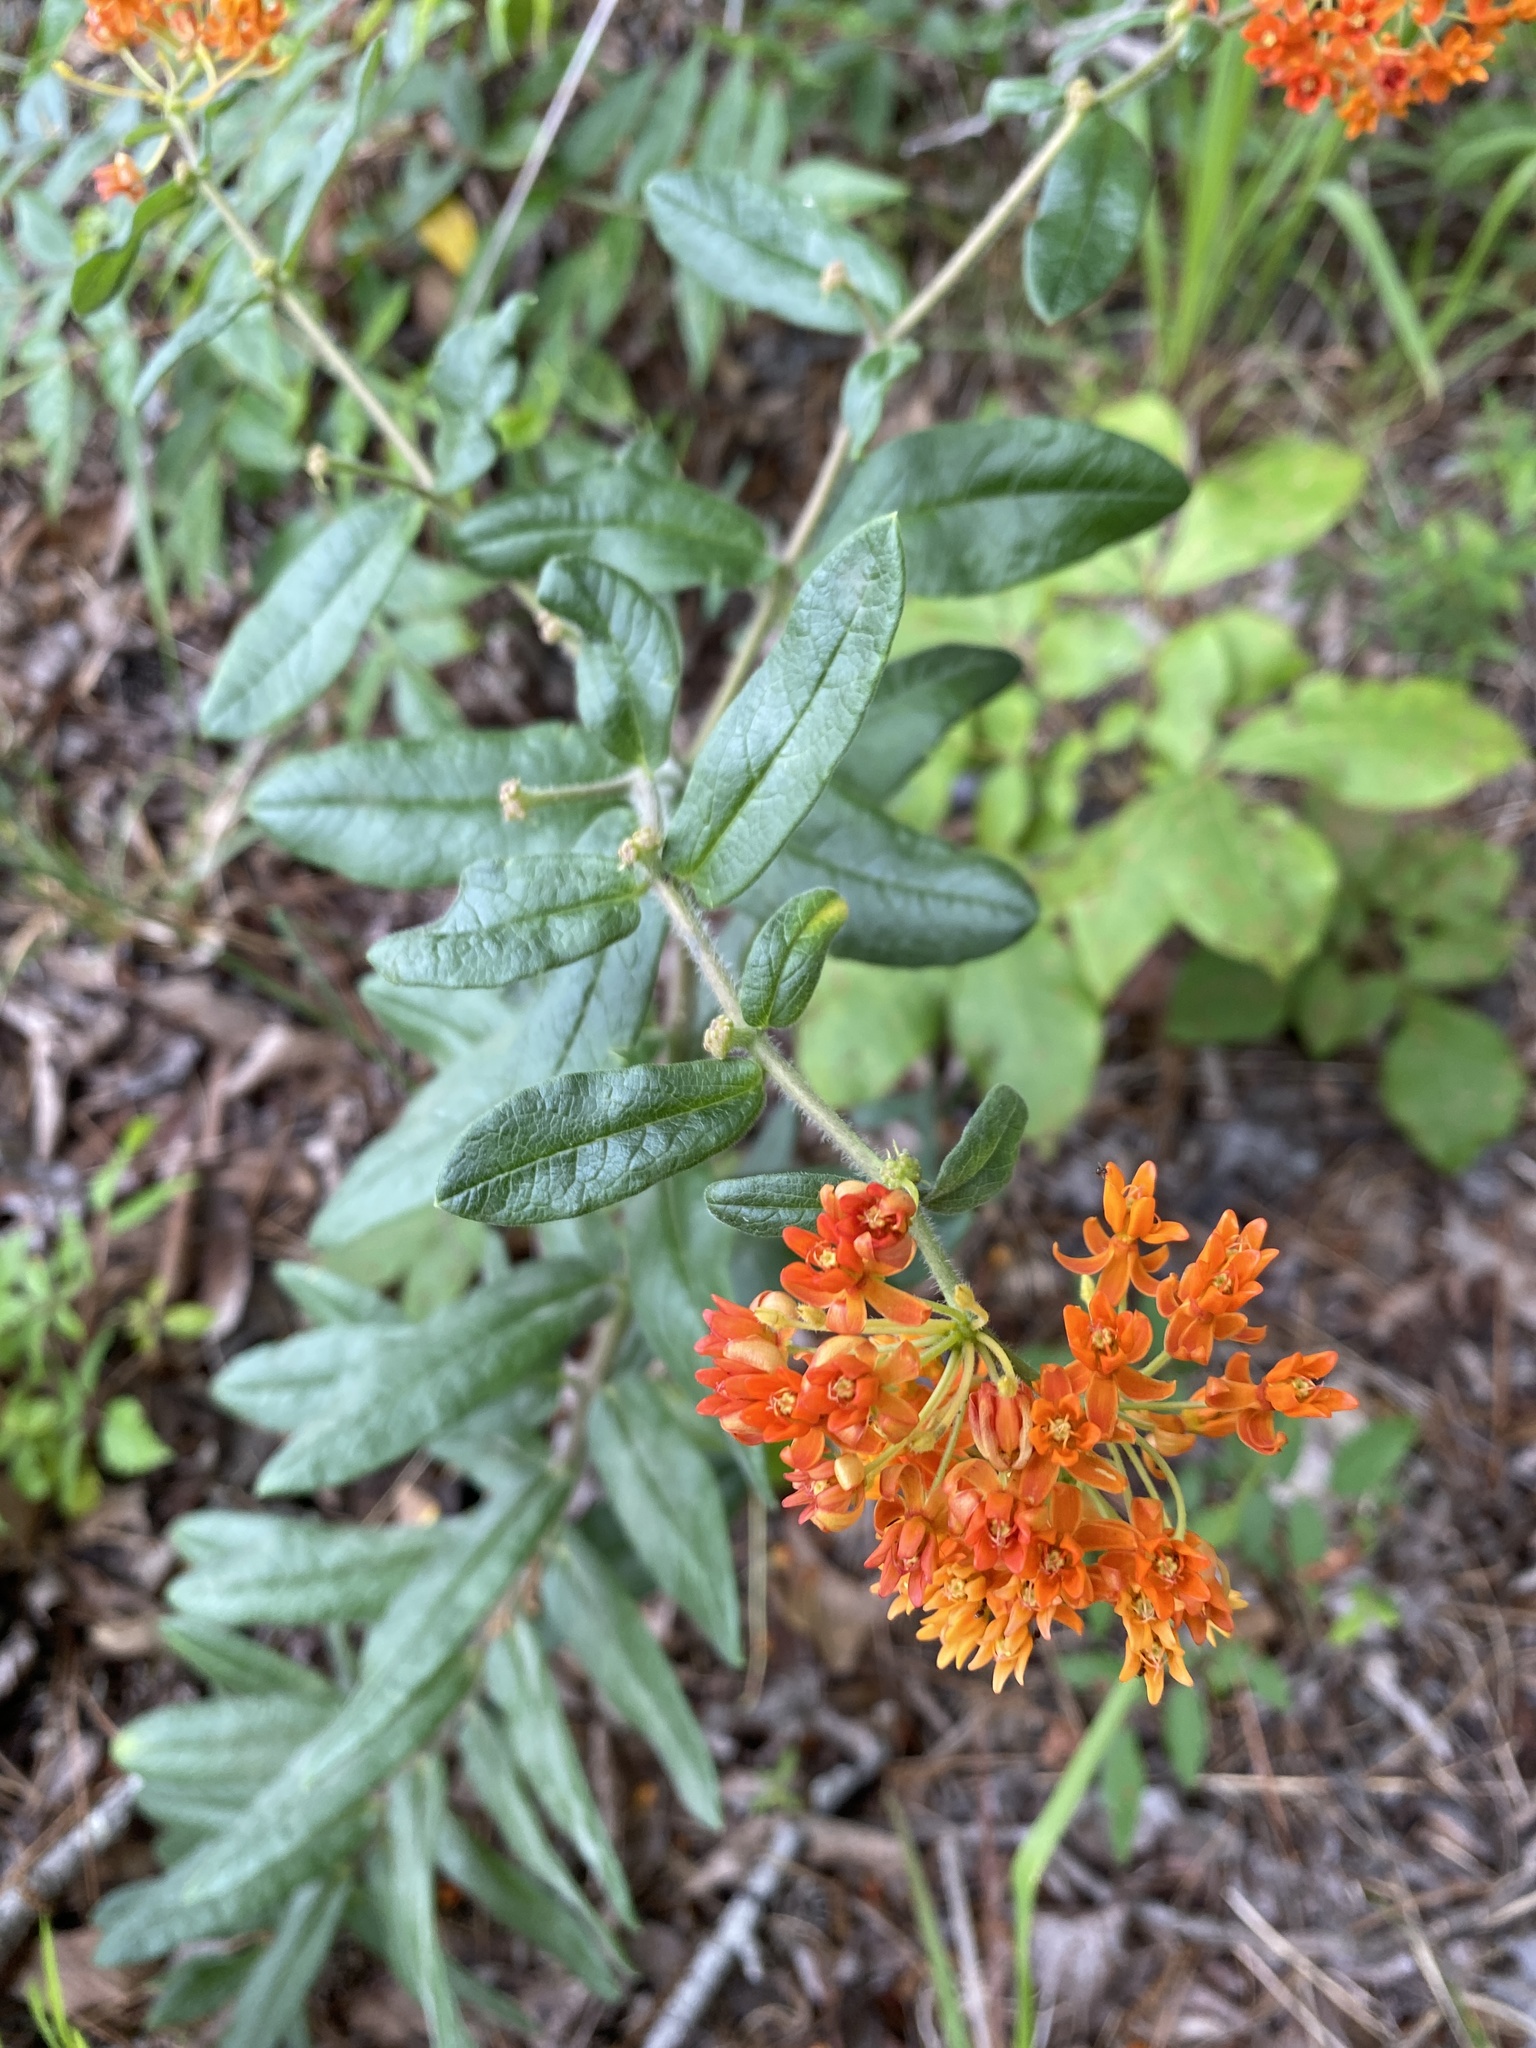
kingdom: Plantae
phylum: Tracheophyta
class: Magnoliopsida
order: Gentianales
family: Apocynaceae
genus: Asclepias
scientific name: Asclepias tuberosa
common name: Butterfly milkweed
